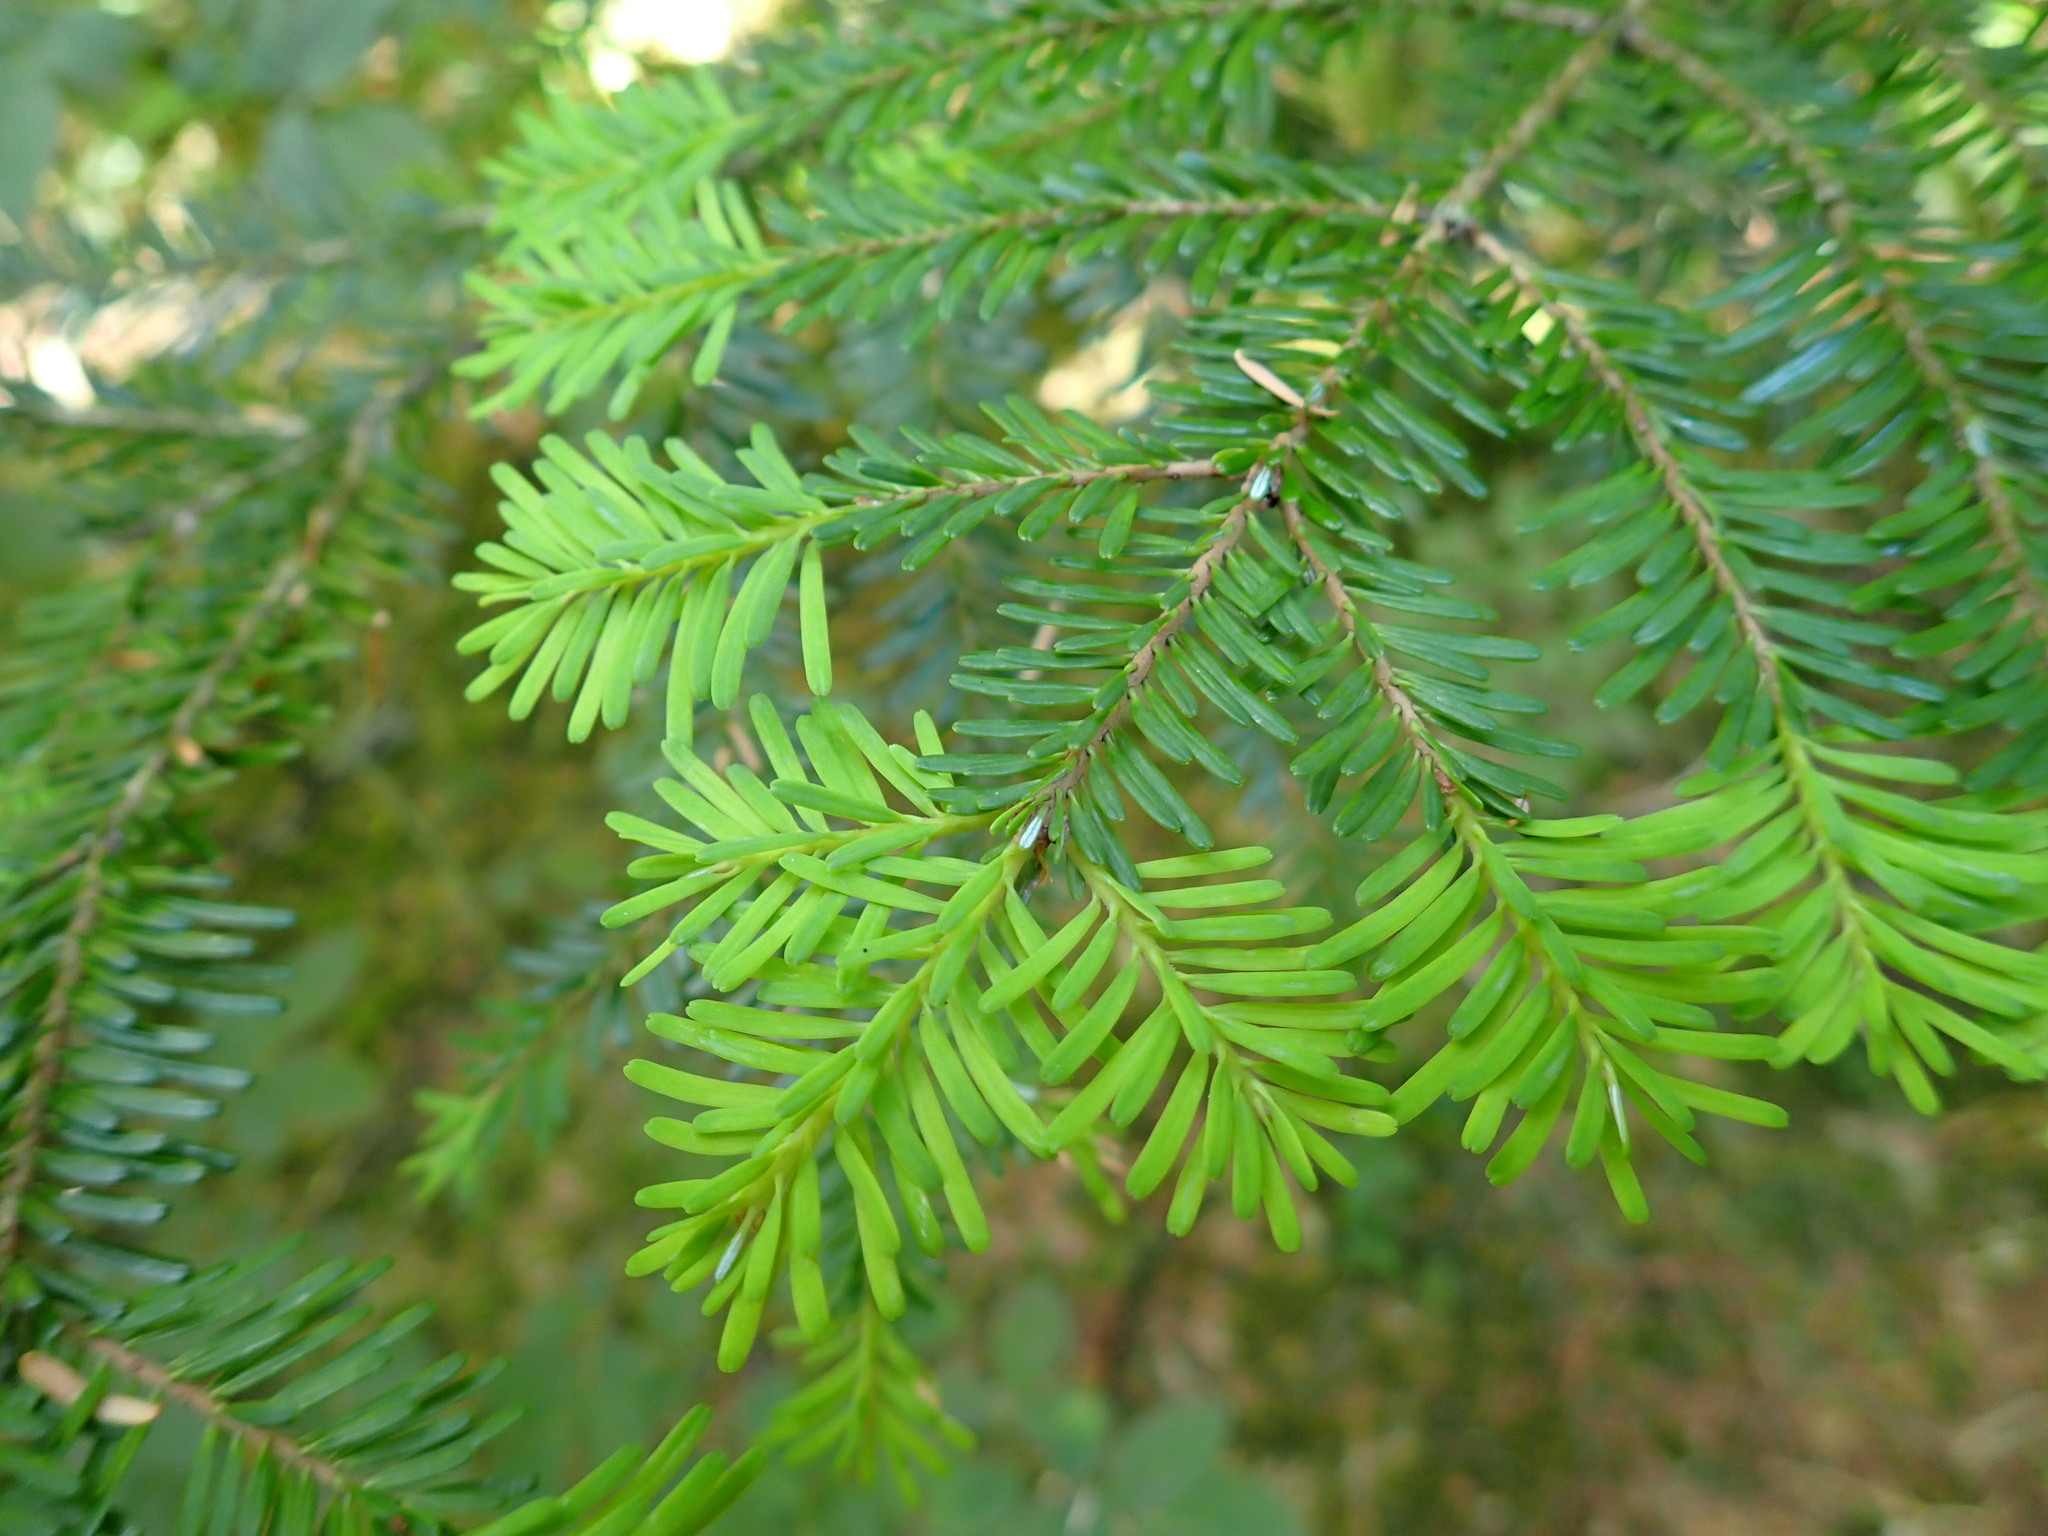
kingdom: Plantae
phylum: Tracheophyta
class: Pinopsida
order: Pinales
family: Pinaceae
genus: Abies
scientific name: Abies amabilis
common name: Pacific silver fir
